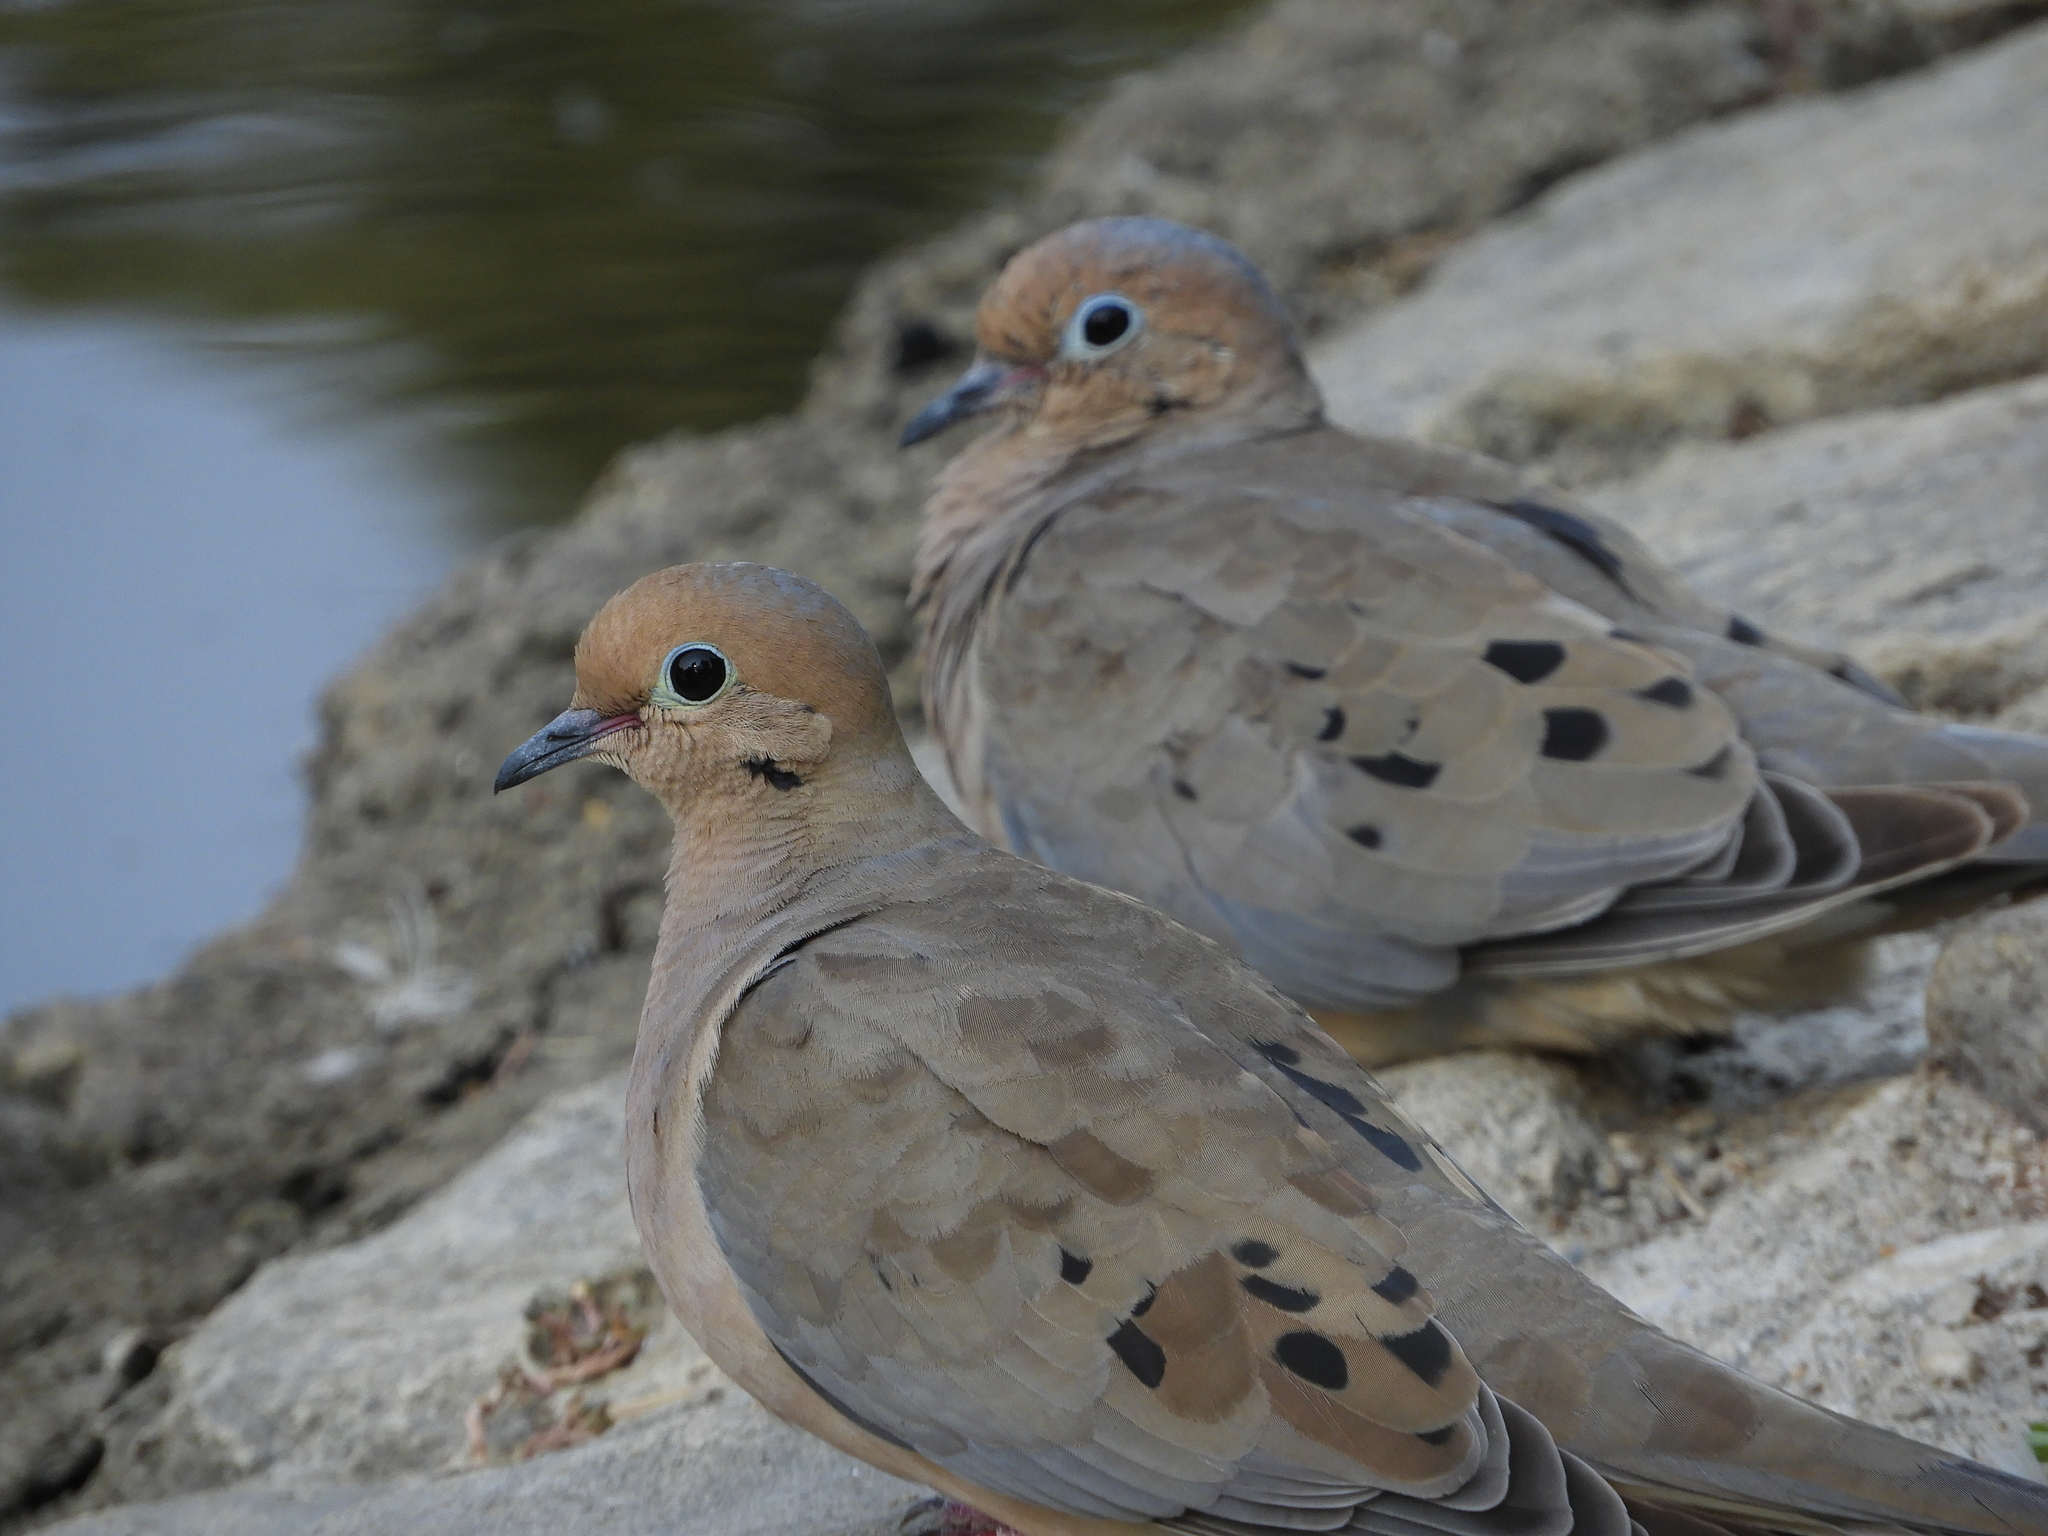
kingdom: Animalia
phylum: Chordata
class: Aves
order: Columbiformes
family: Columbidae
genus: Zenaida
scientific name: Zenaida macroura
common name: Mourning dove
